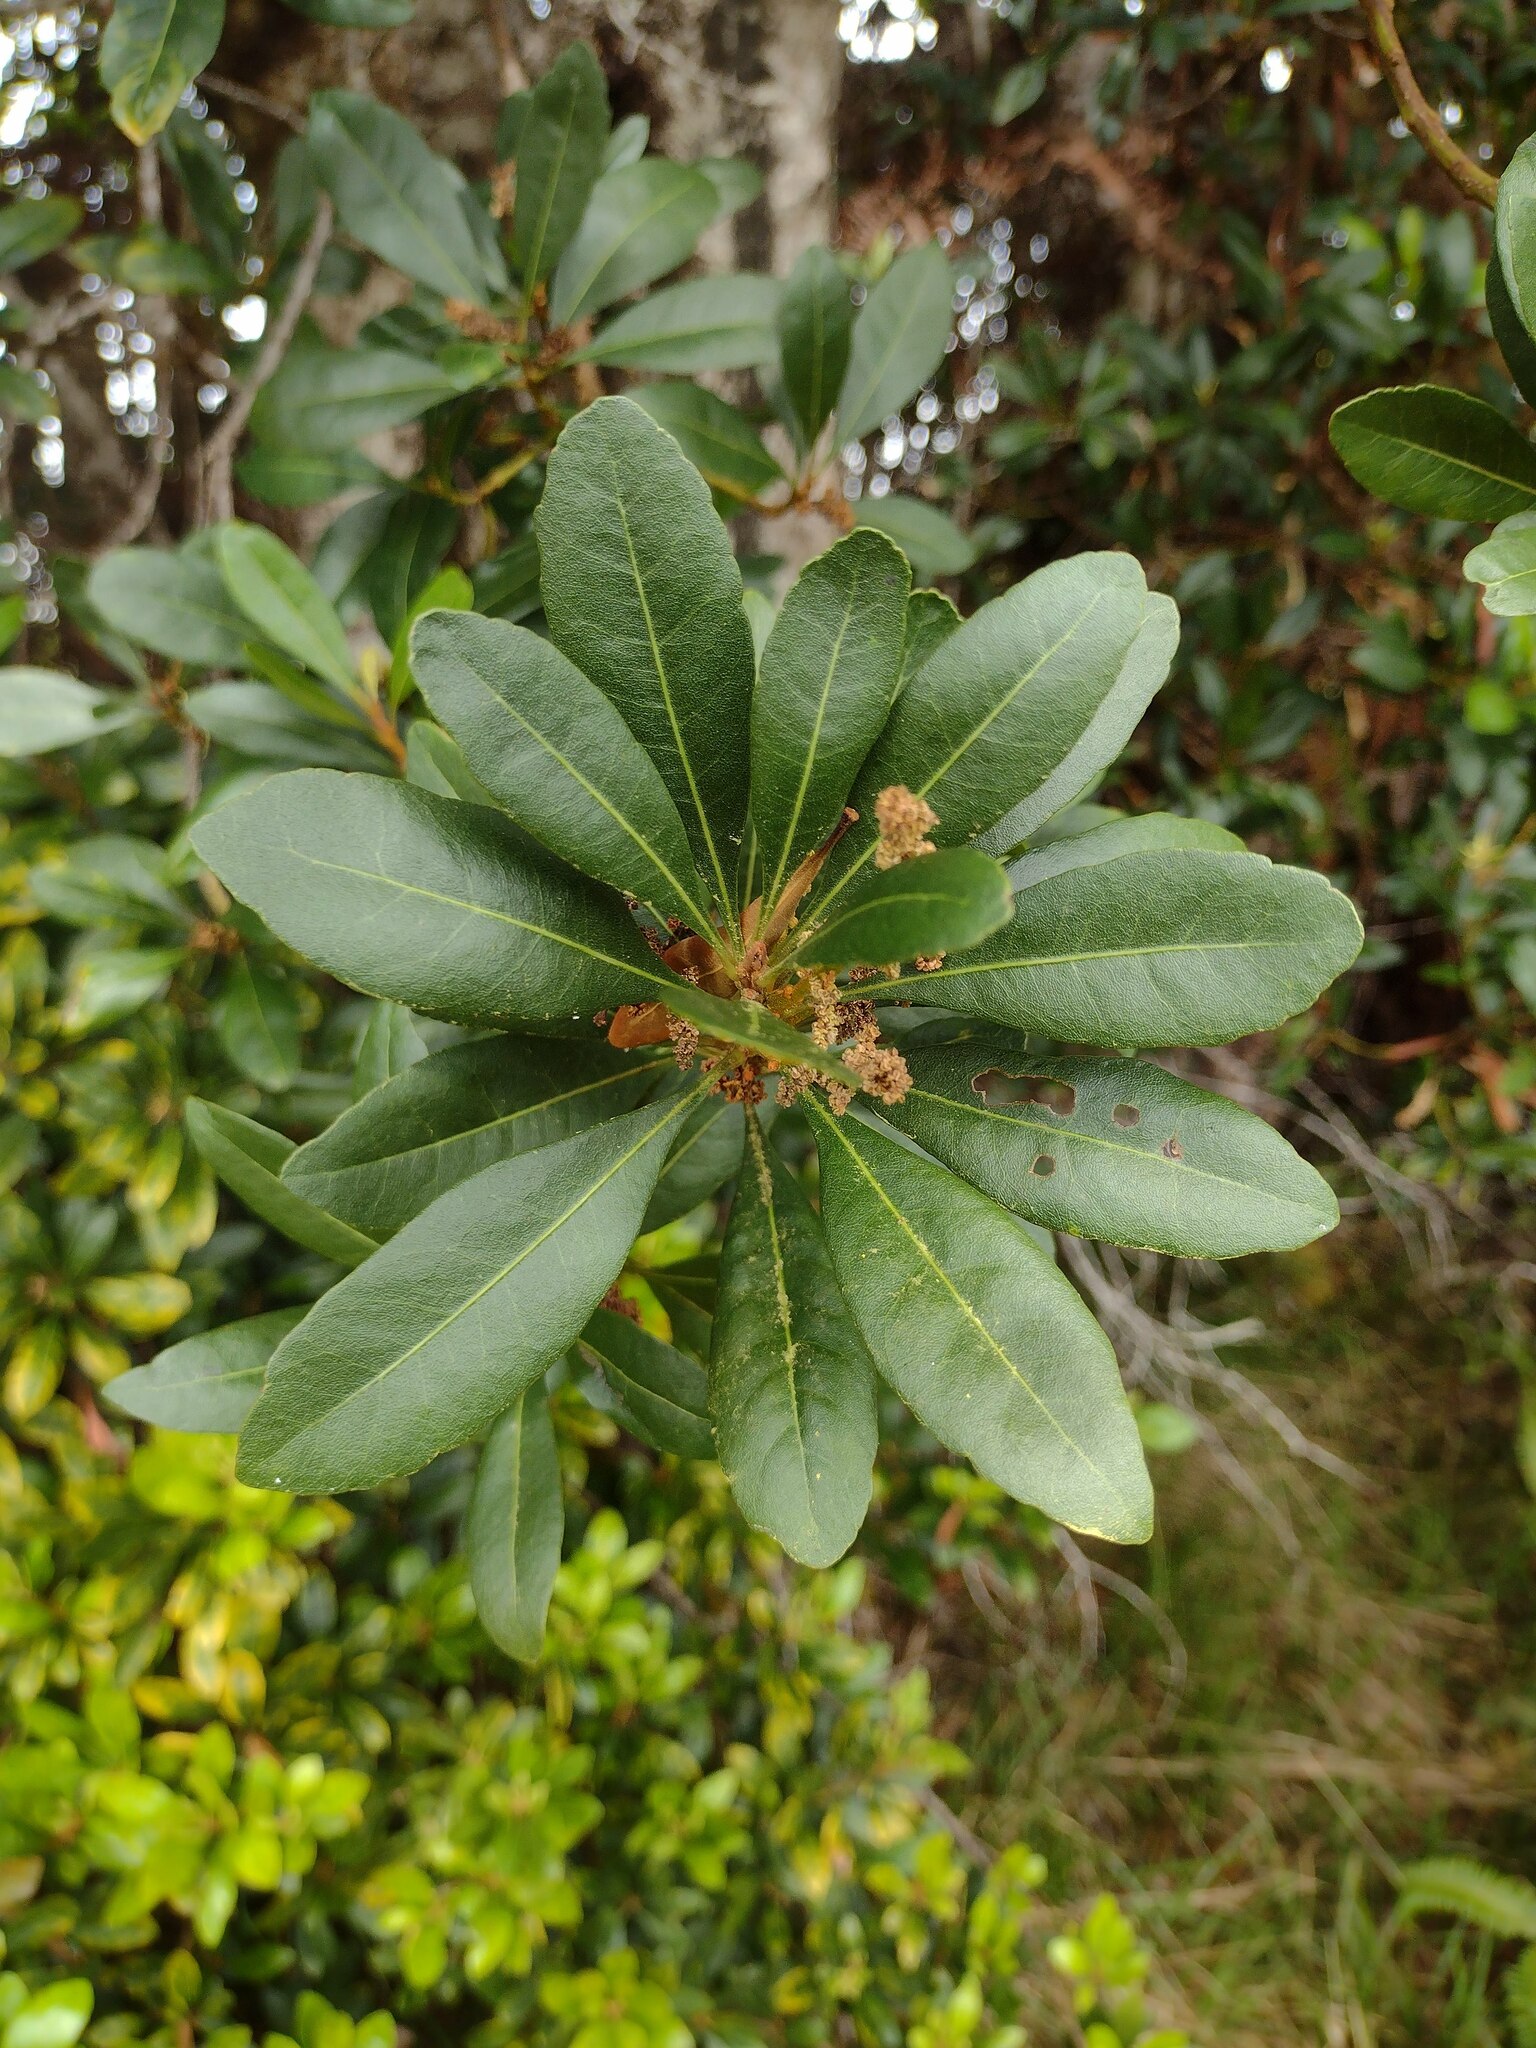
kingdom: Plantae
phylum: Tracheophyta
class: Magnoliopsida
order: Fagales
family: Myricaceae
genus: Morella
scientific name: Morella faya
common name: Firetree
